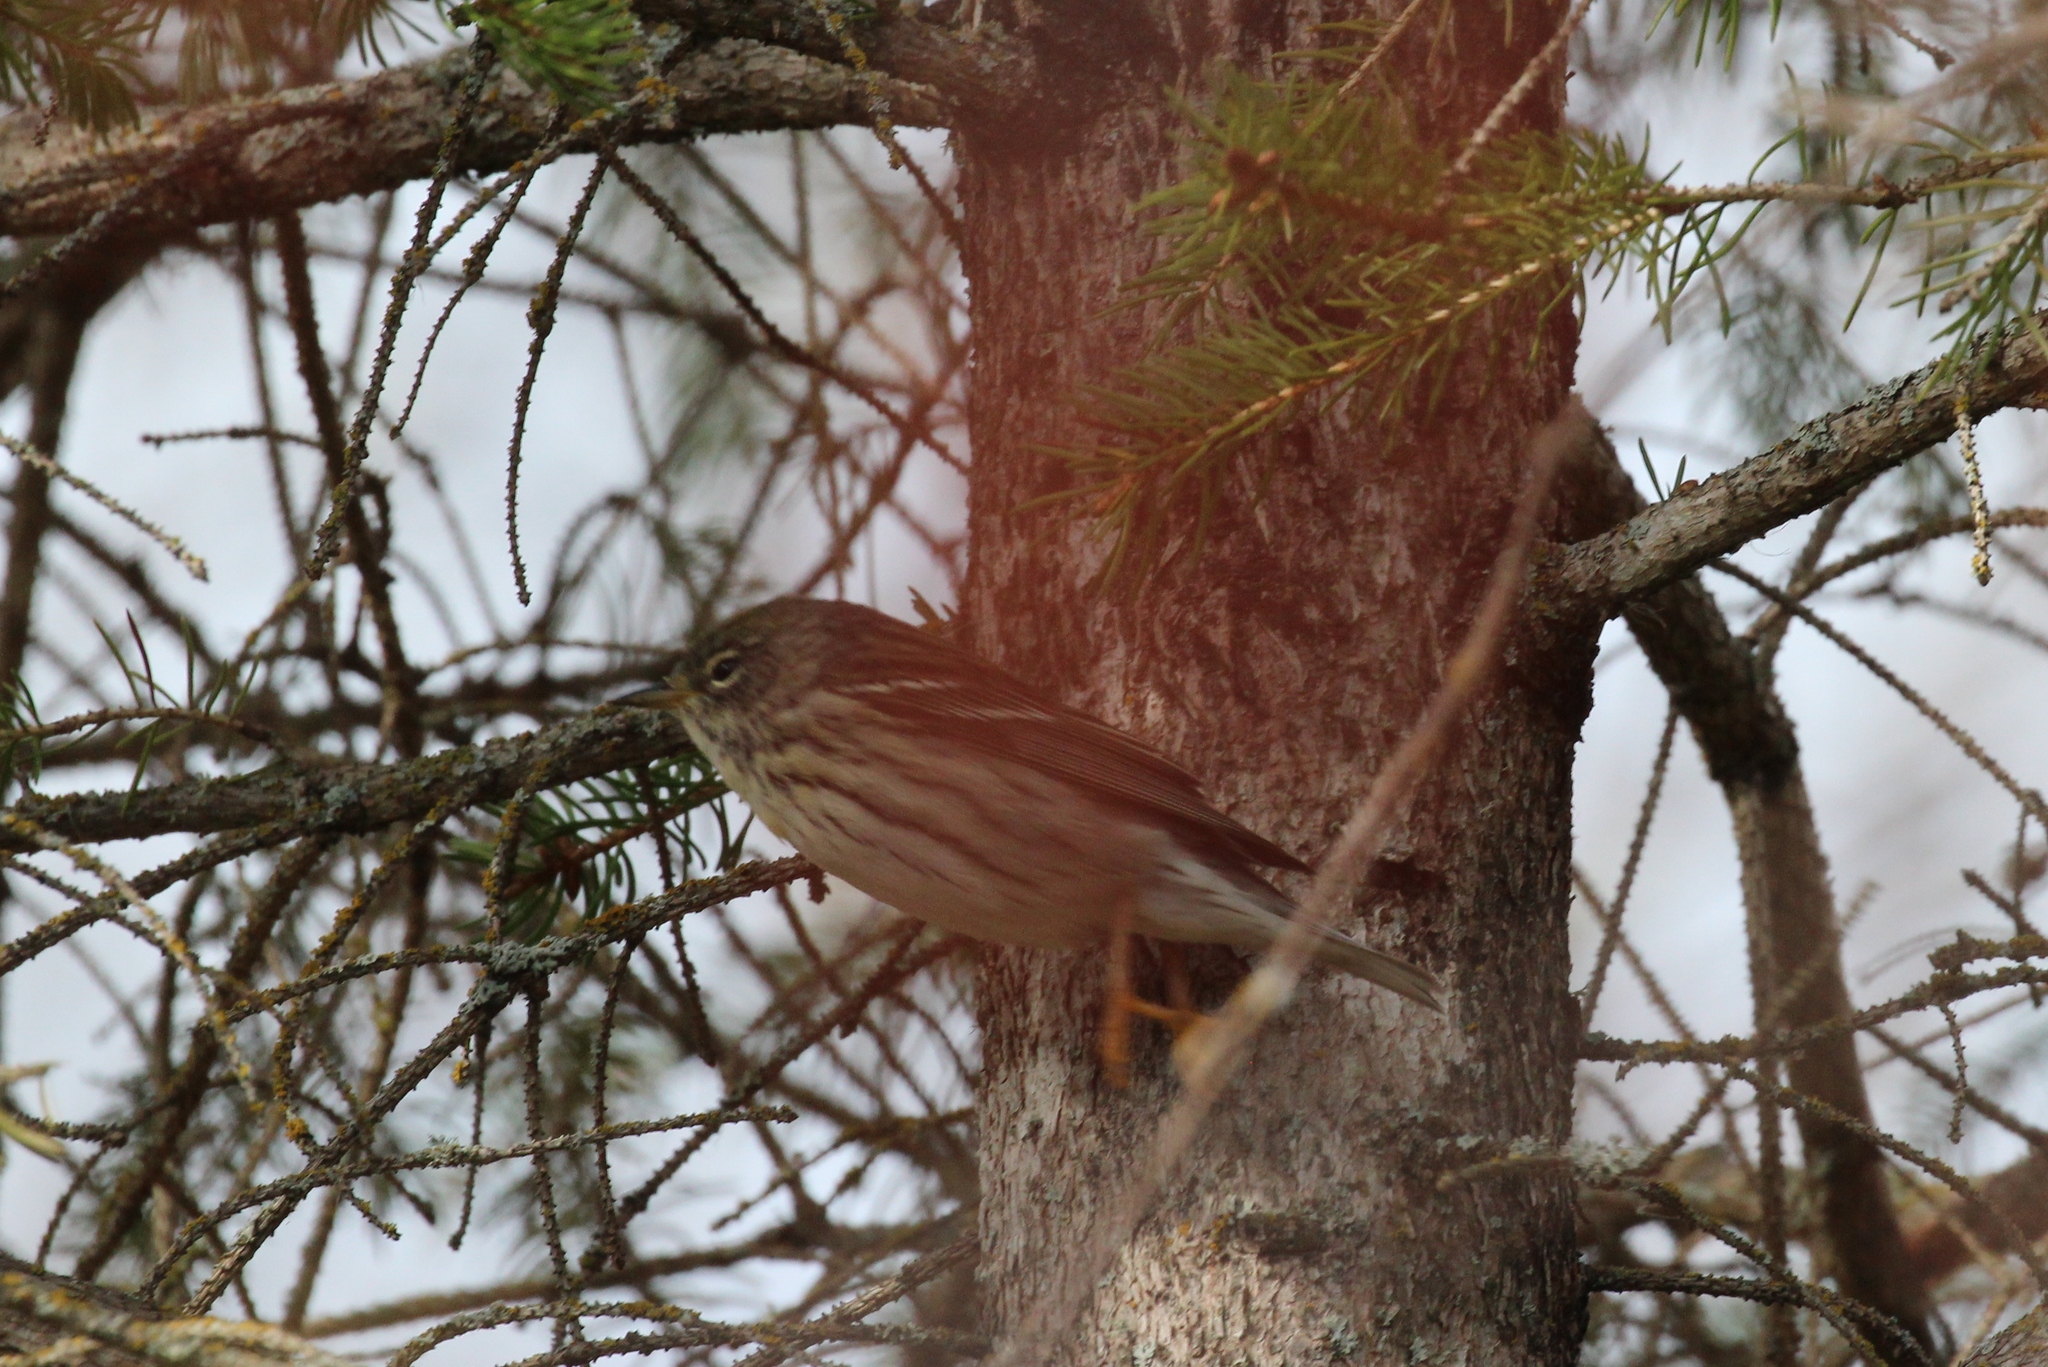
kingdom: Animalia
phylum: Chordata
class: Aves
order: Passeriformes
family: Parulidae
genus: Setophaga
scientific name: Setophaga striata
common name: Blackpoll warbler
